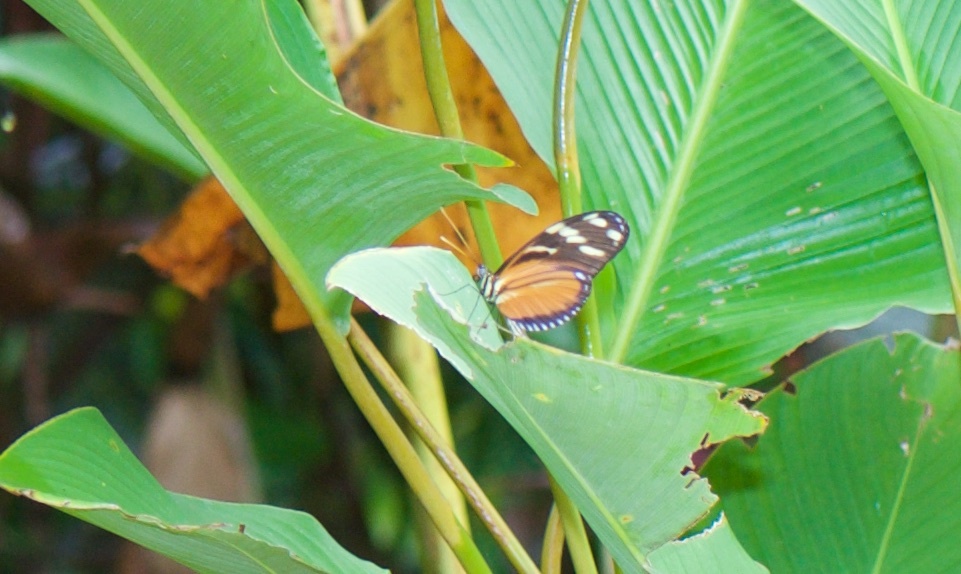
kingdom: Animalia
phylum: Arthropoda
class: Insecta
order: Lepidoptera
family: Nymphalidae
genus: Heliconius
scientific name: Heliconius ismenius
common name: Ismenius tiger
